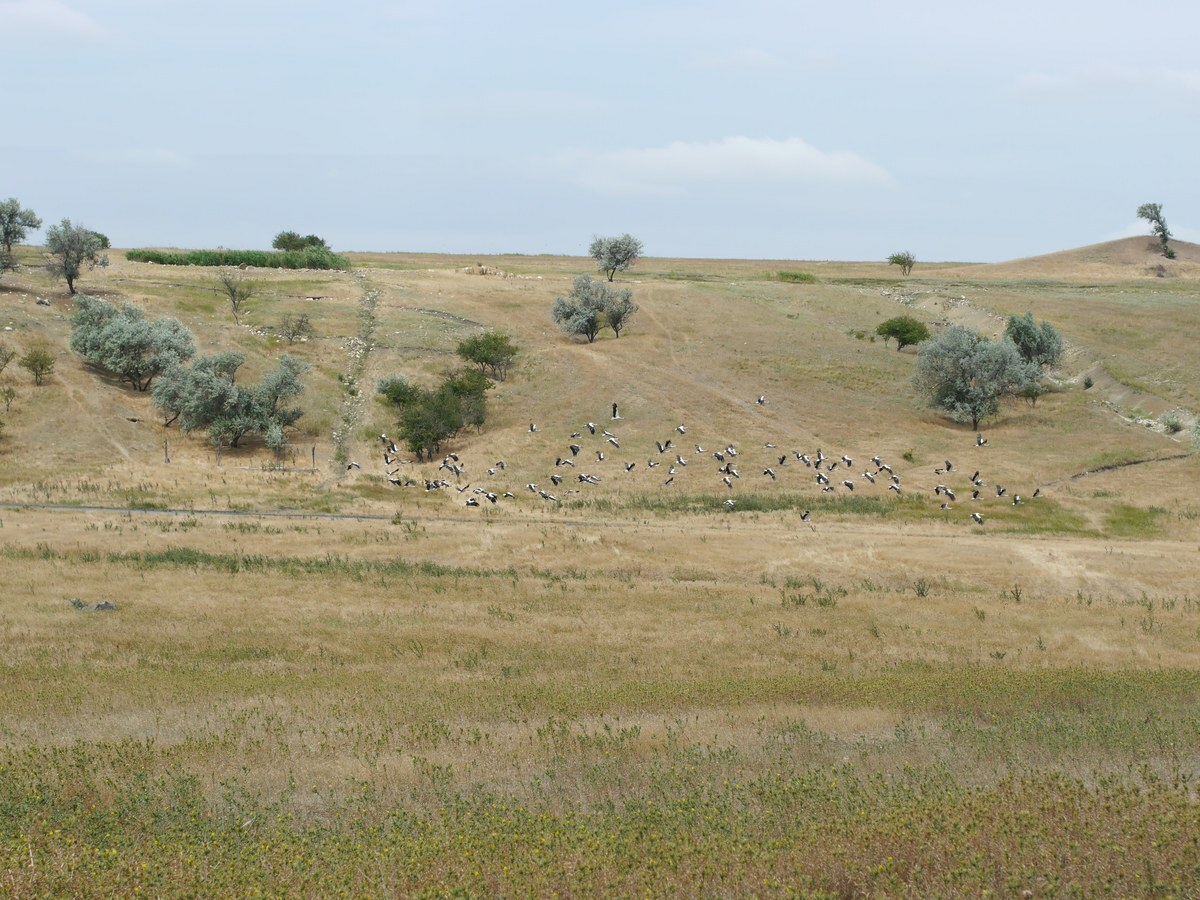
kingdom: Animalia
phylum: Chordata
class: Aves
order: Ciconiiformes
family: Ciconiidae
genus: Ciconia
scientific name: Ciconia ciconia
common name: White stork
